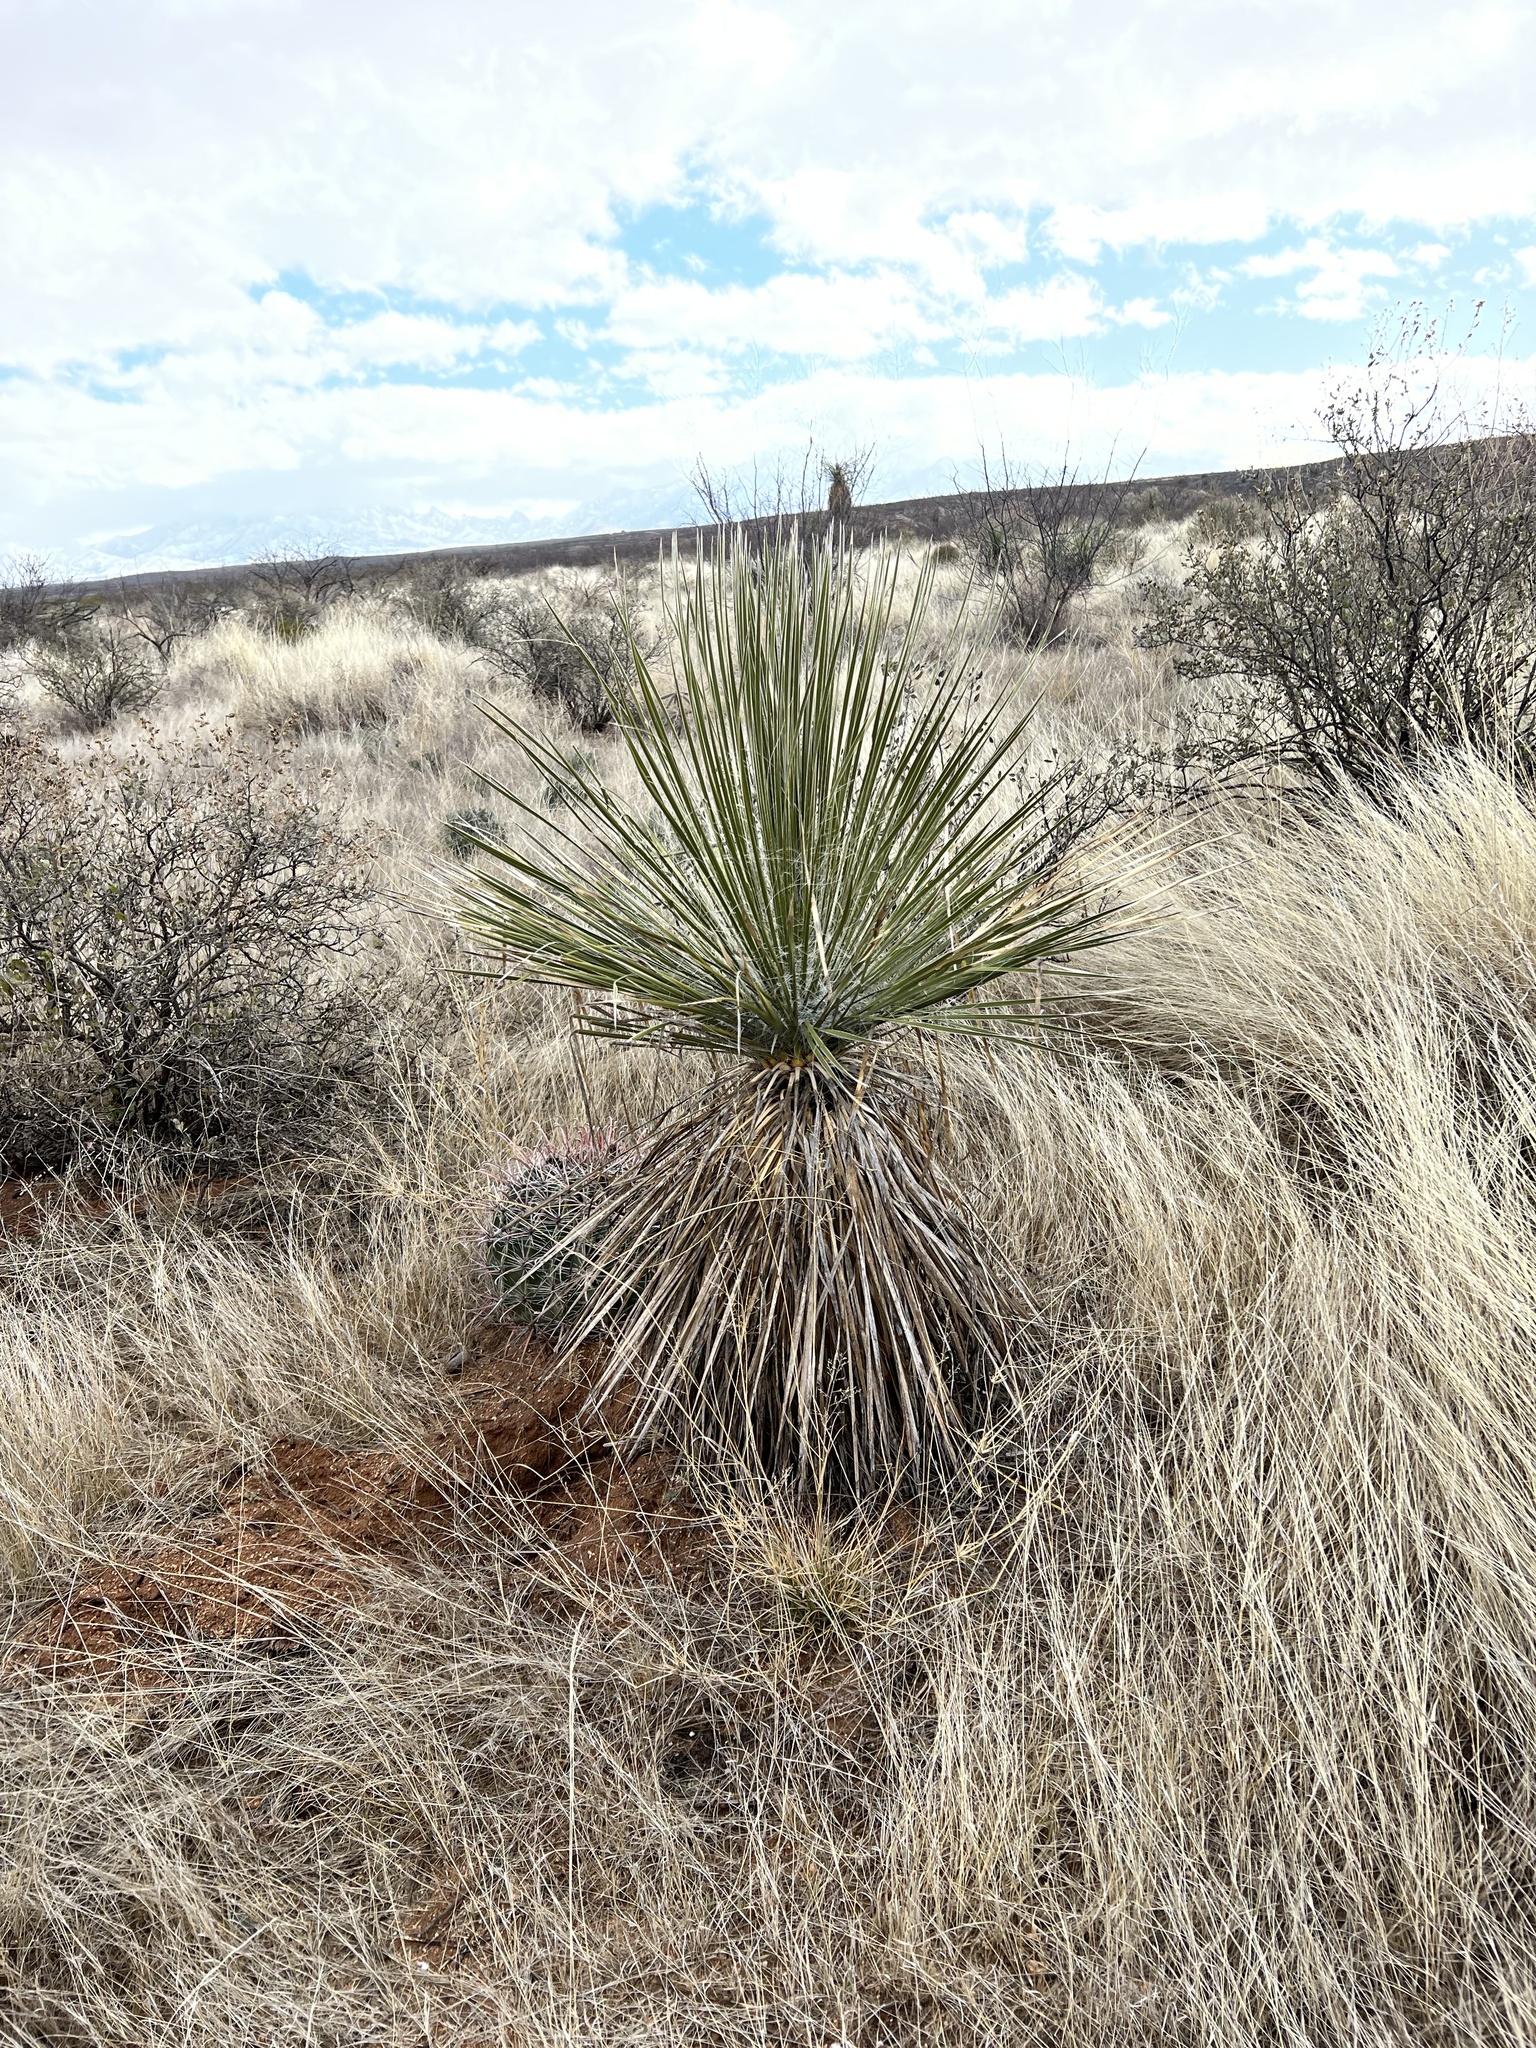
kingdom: Plantae
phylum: Tracheophyta
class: Liliopsida
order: Asparagales
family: Asparagaceae
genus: Yucca
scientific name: Yucca elata
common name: Palmella
